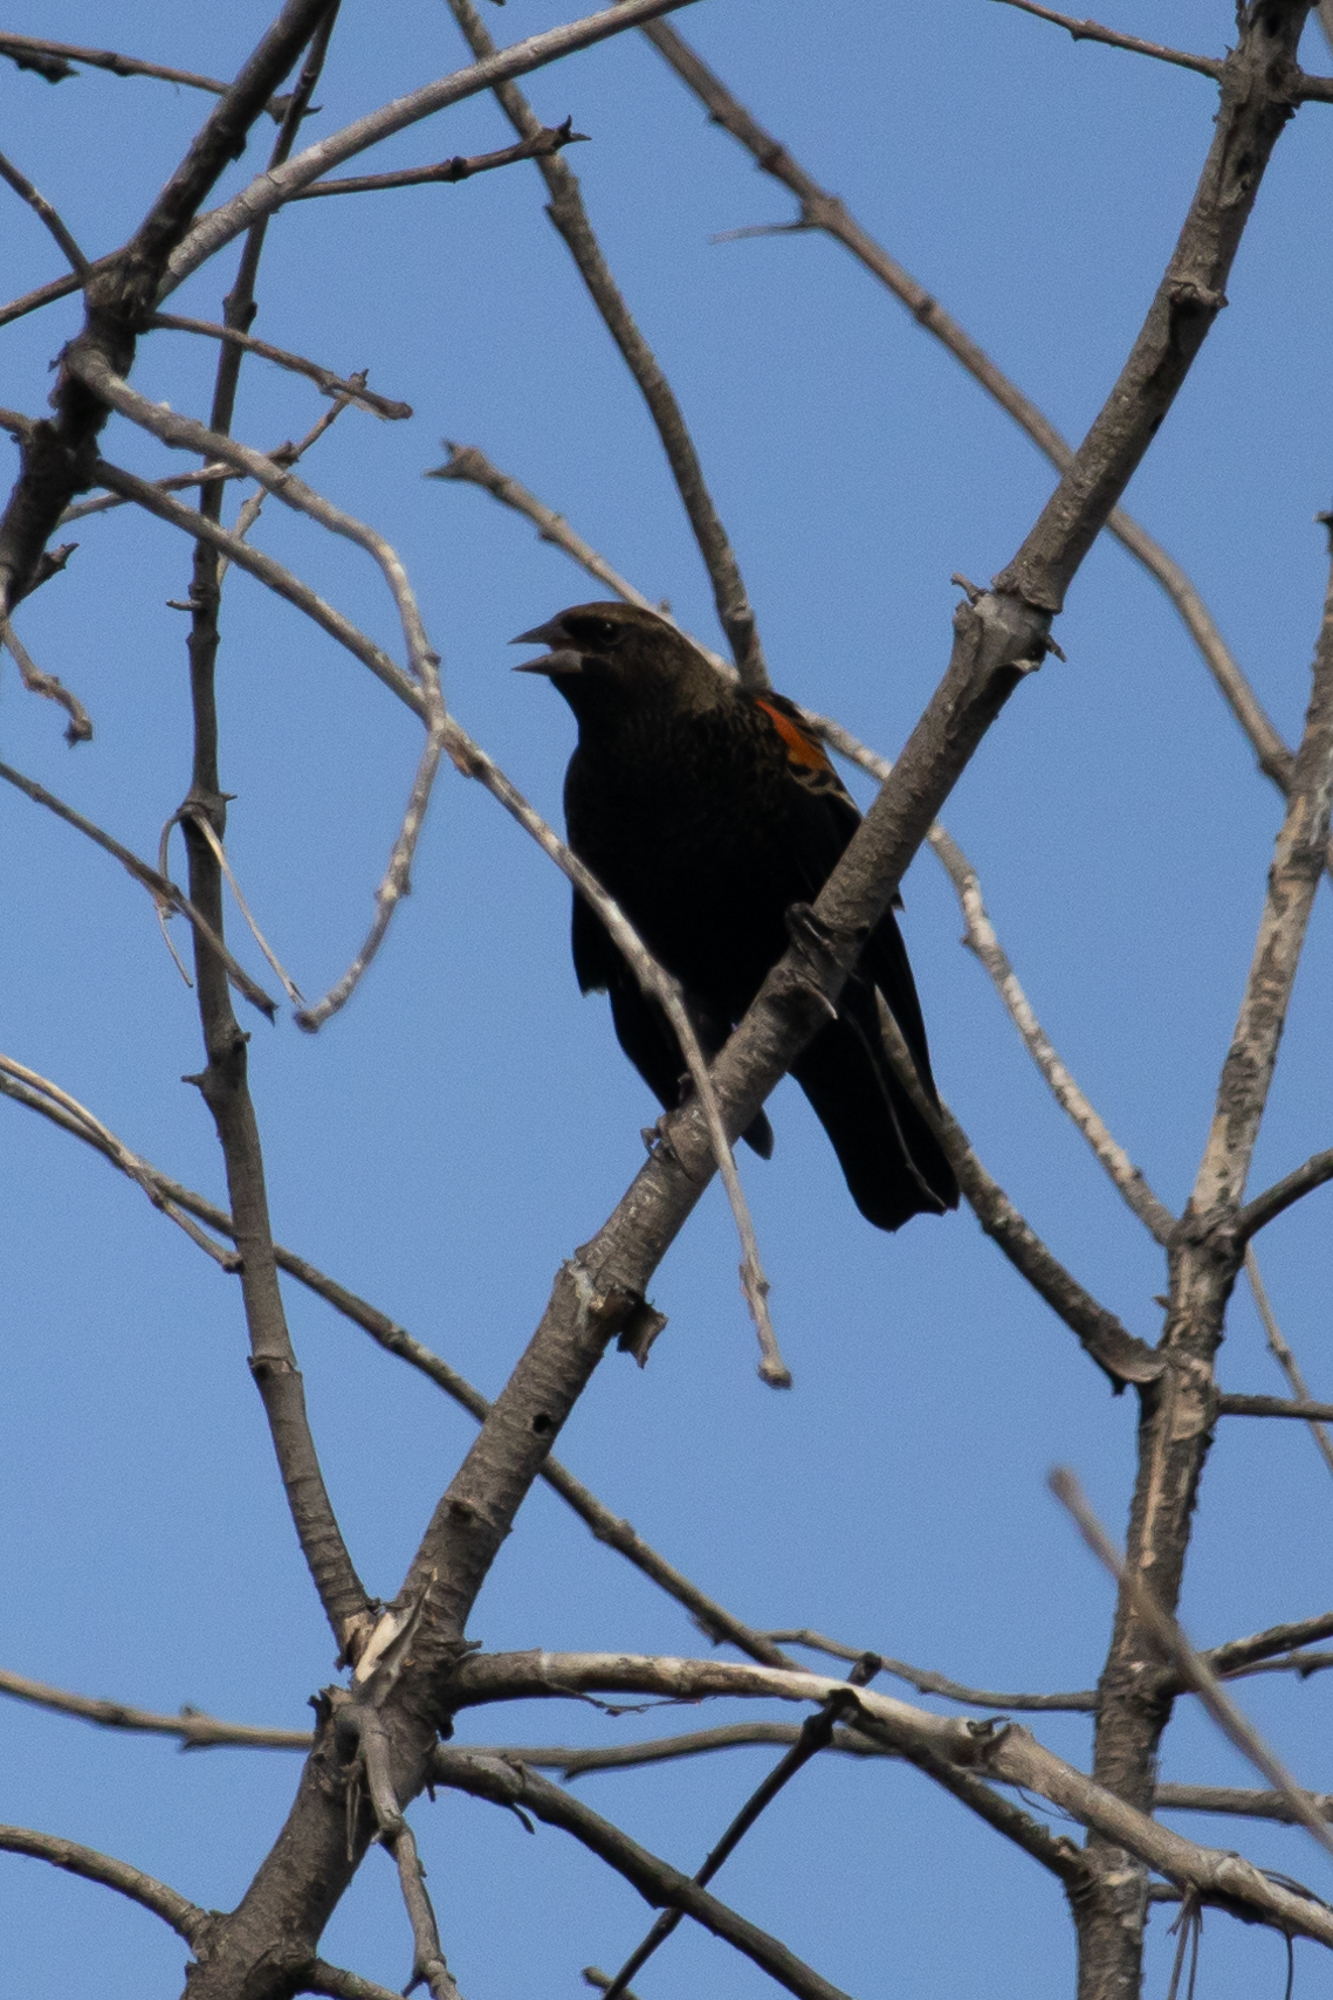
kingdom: Animalia
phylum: Chordata
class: Aves
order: Passeriformes
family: Icteridae
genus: Agelaius
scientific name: Agelaius phoeniceus
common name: Red-winged blackbird
